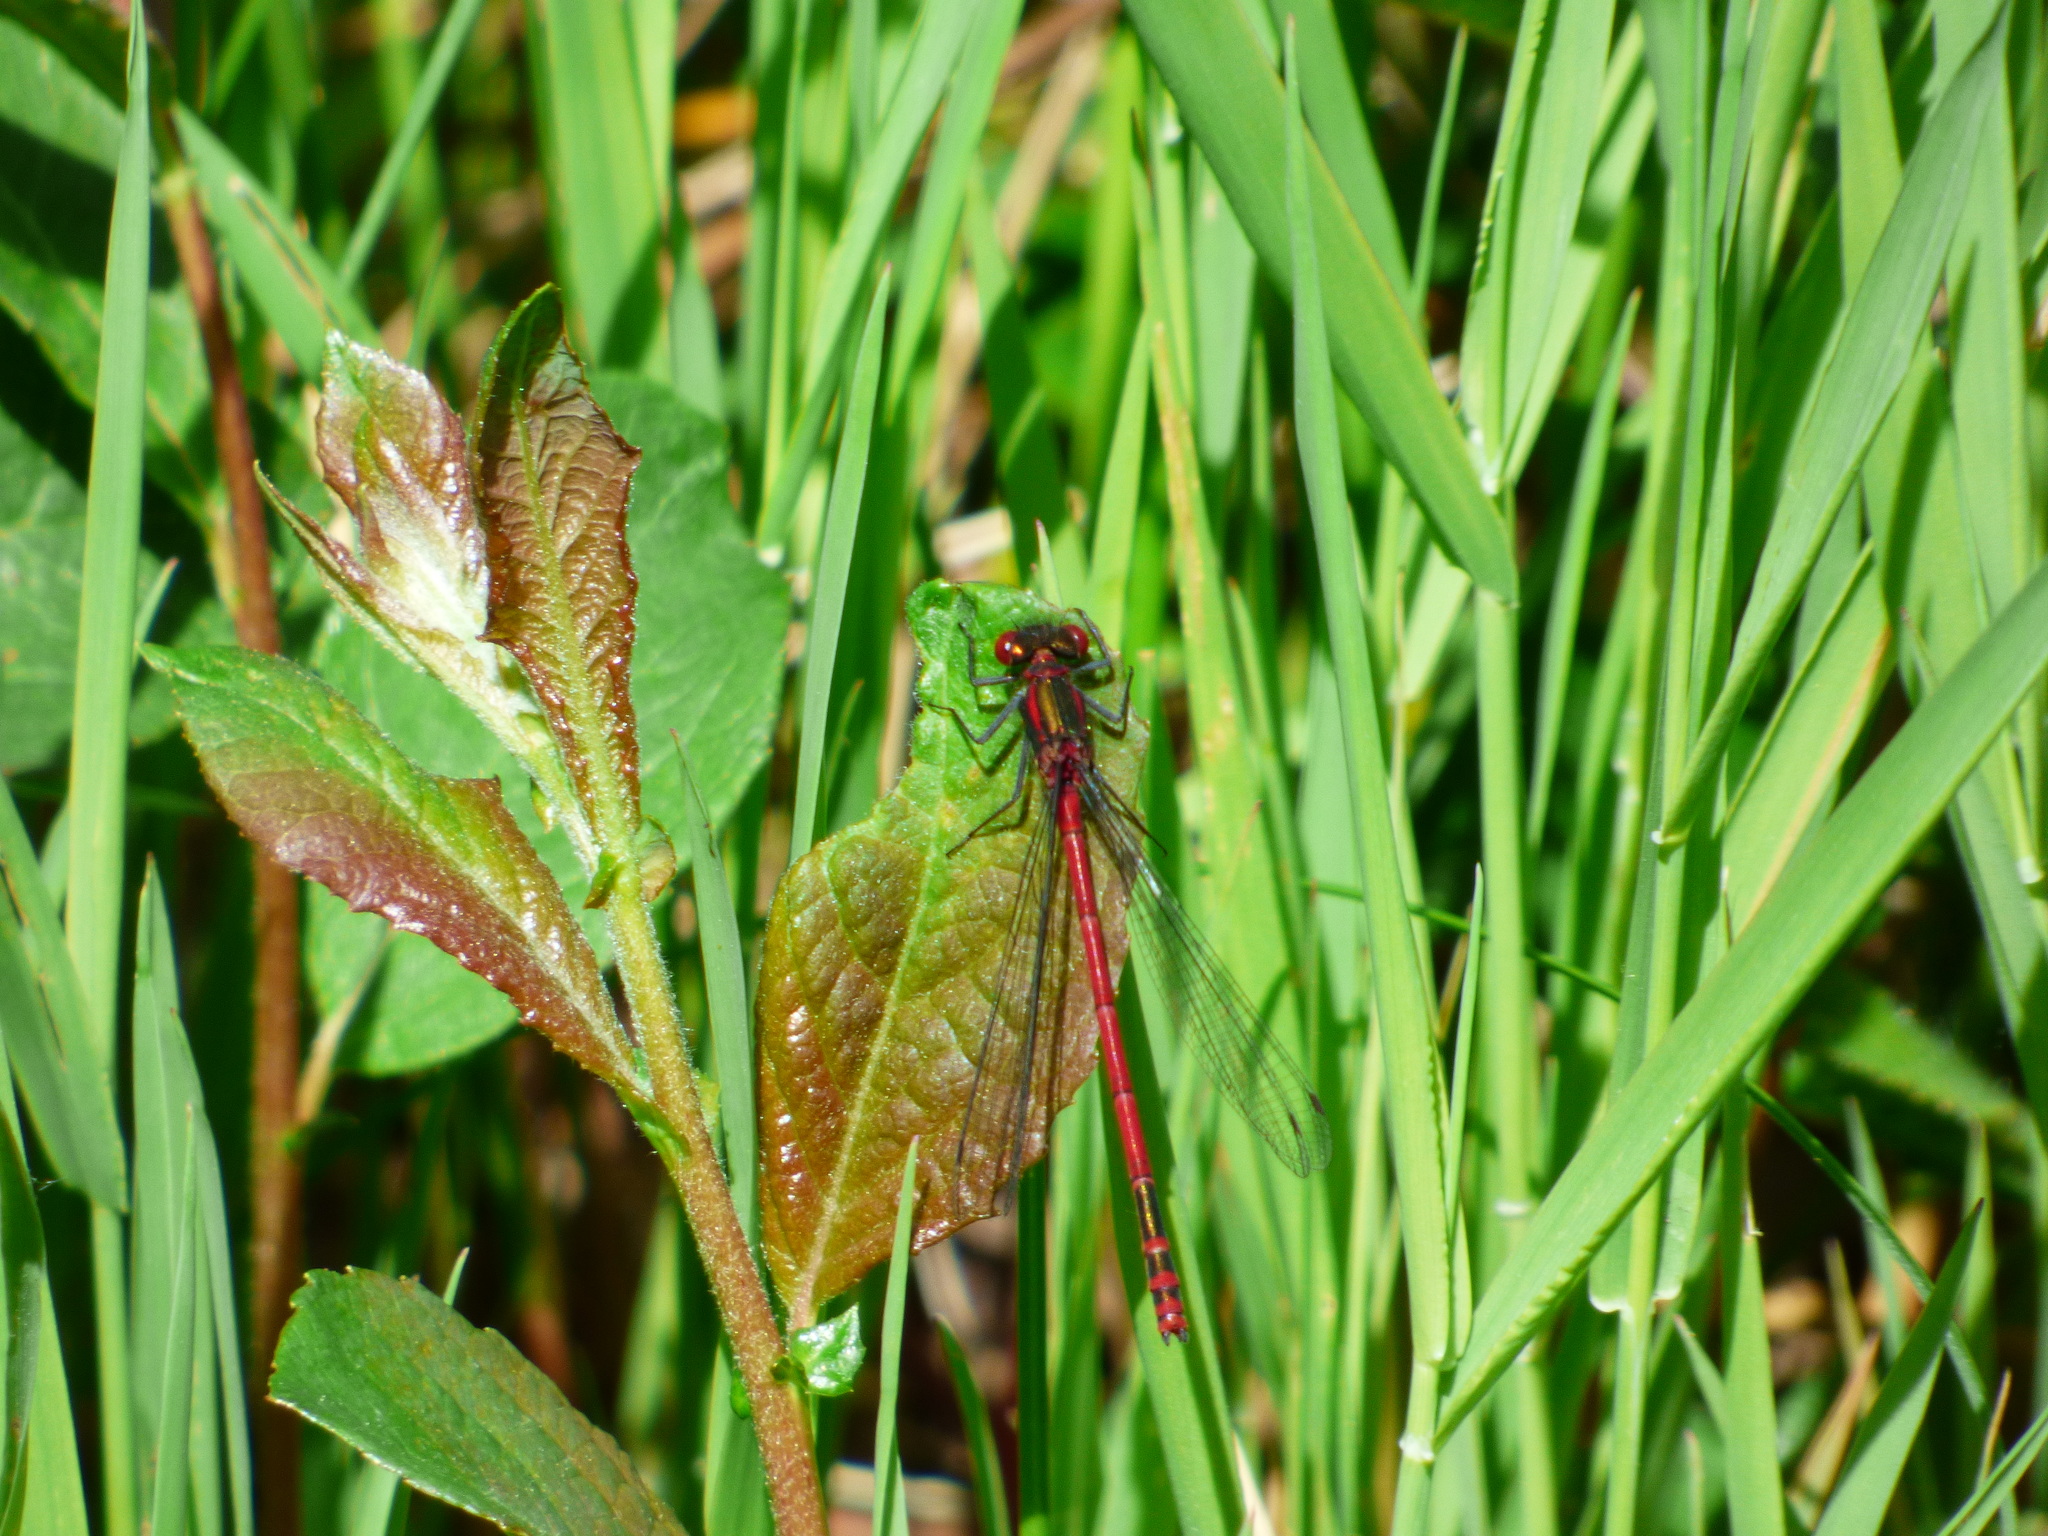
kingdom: Animalia
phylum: Arthropoda
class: Insecta
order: Odonata
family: Coenagrionidae
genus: Pyrrhosoma
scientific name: Pyrrhosoma nymphula
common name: Large red damsel
